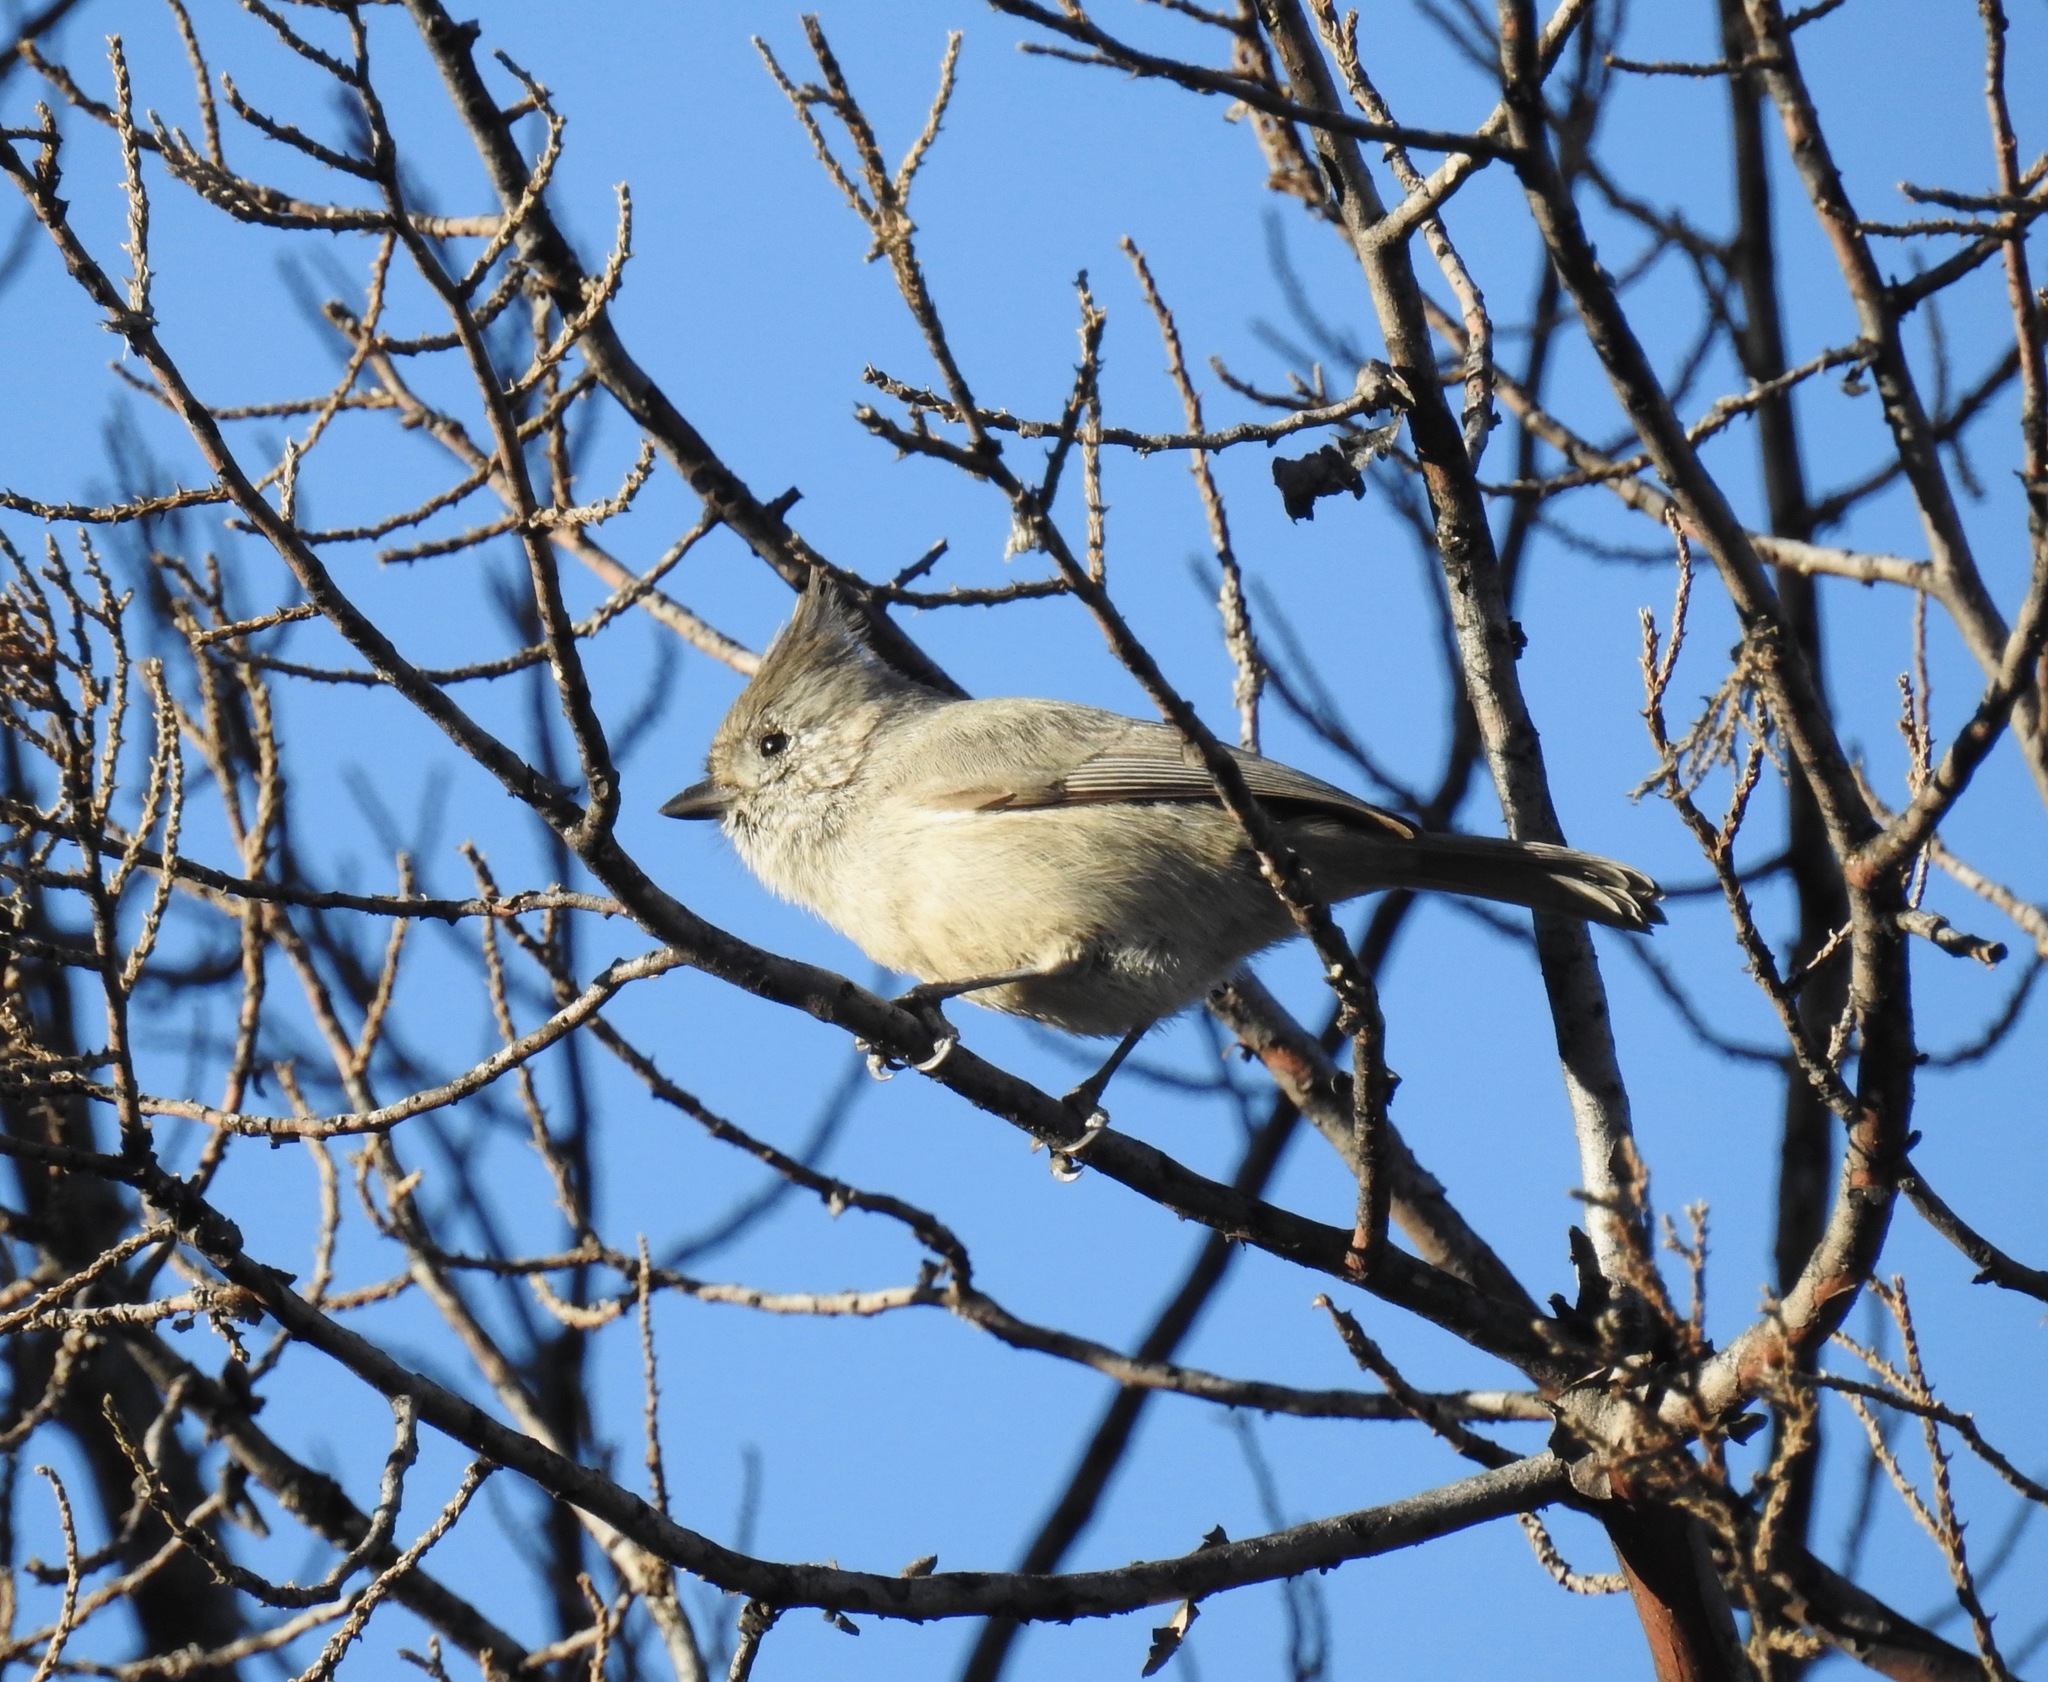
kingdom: Animalia
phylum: Chordata
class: Aves
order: Passeriformes
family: Paridae
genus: Baeolophus
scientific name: Baeolophus ridgwayi
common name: Juniper titmouse
